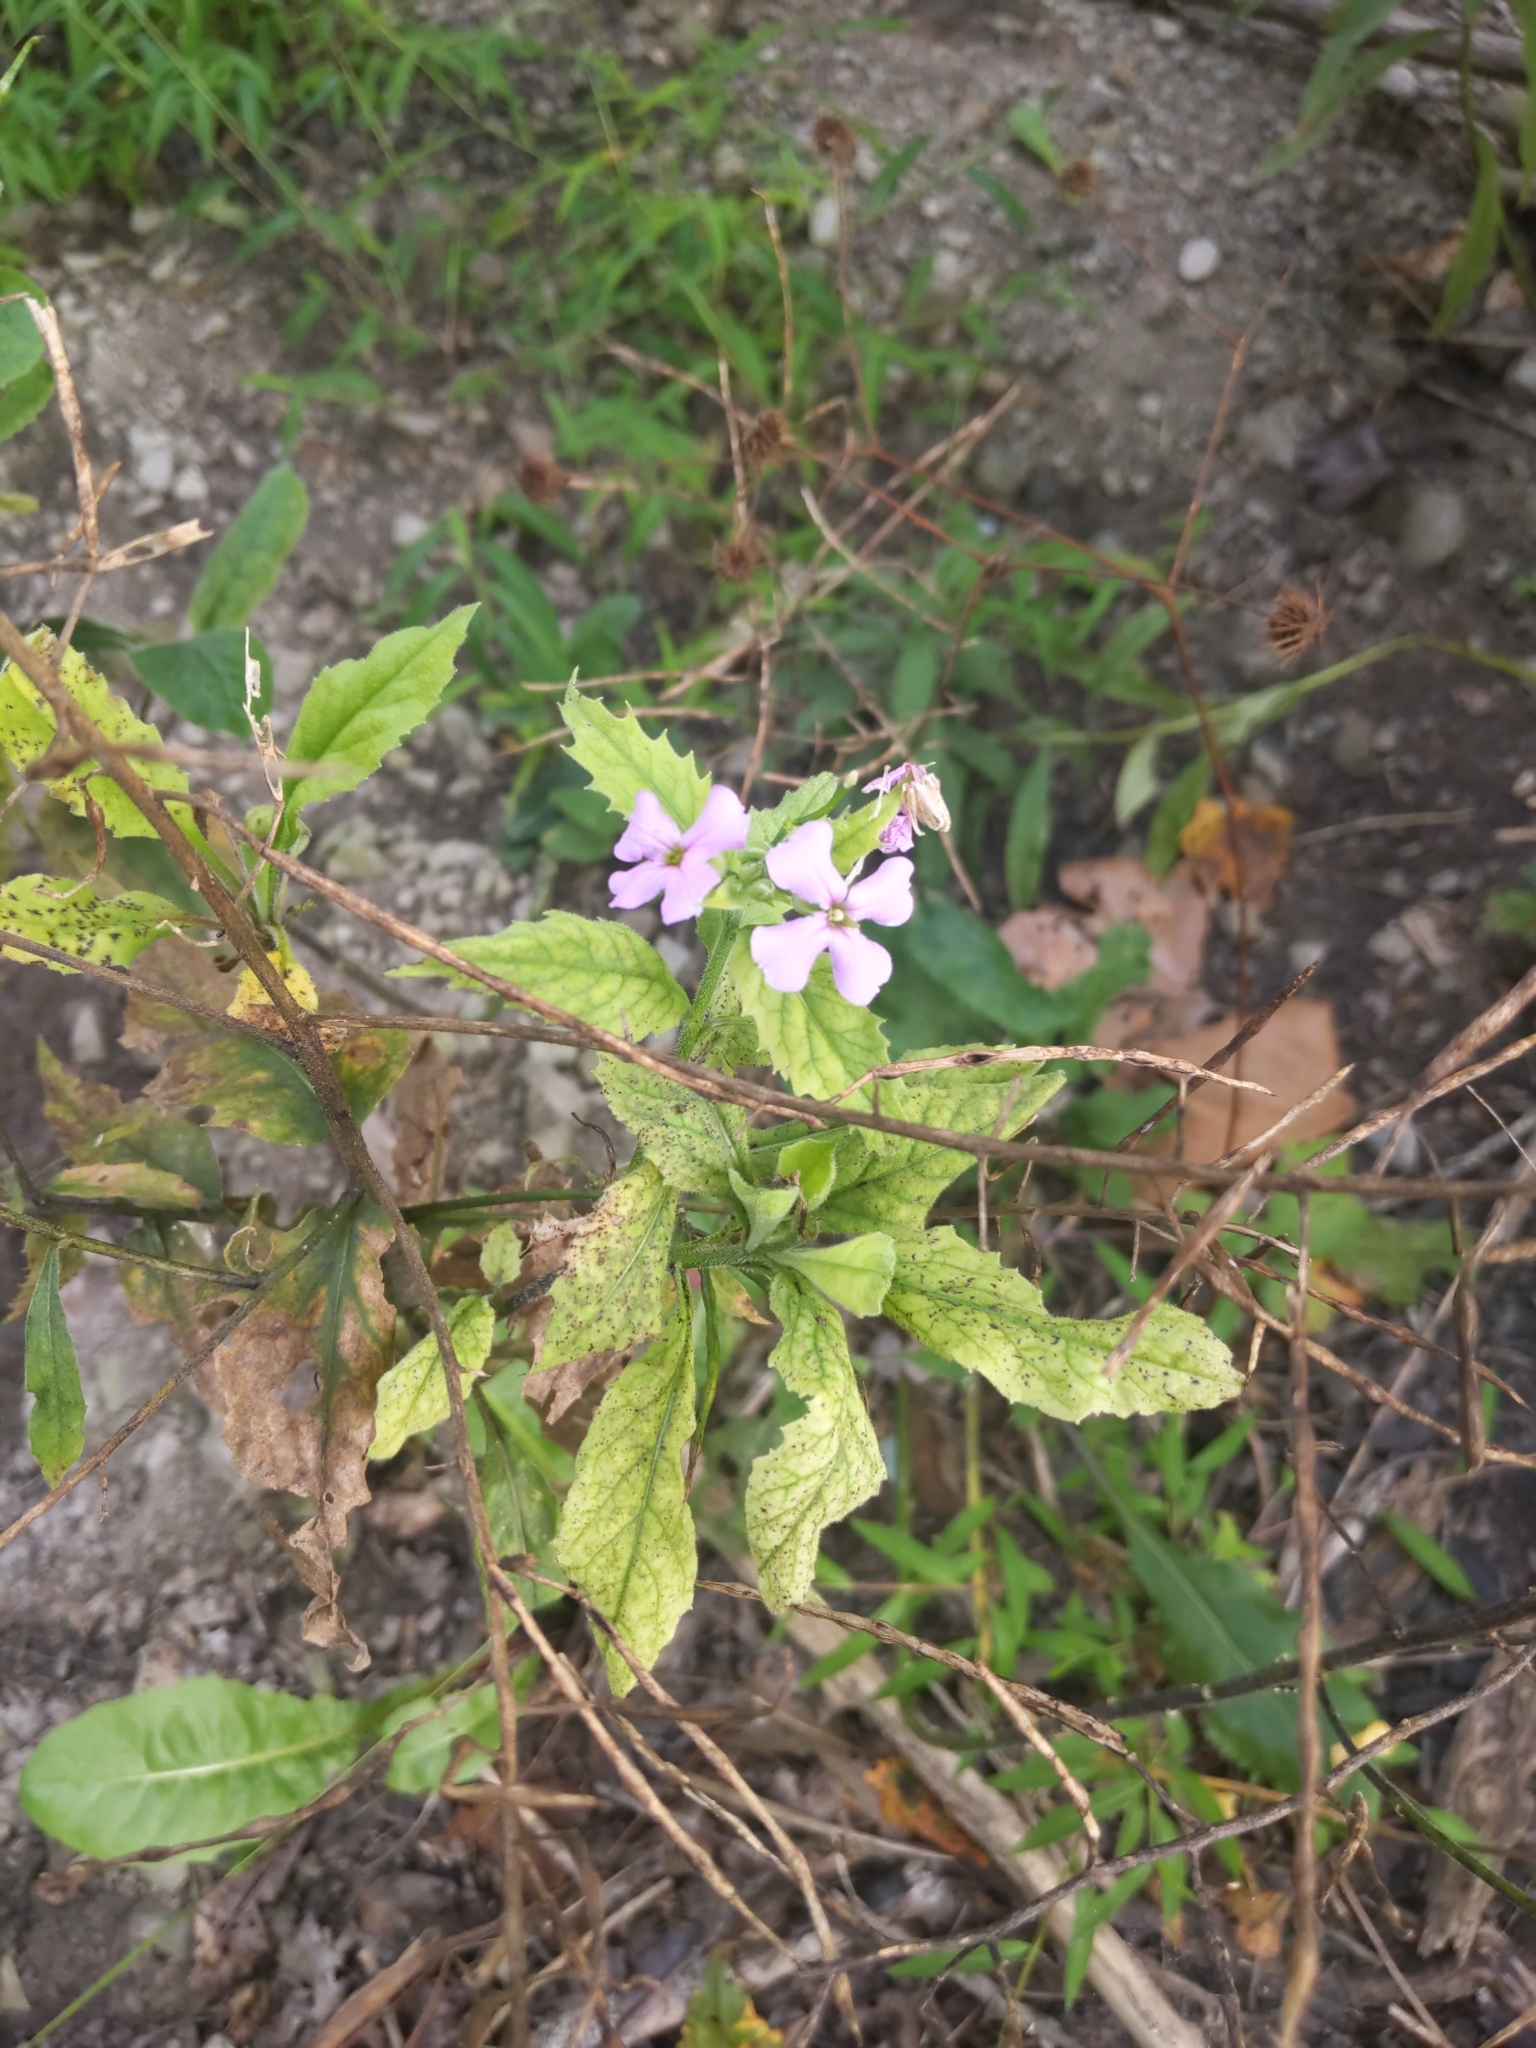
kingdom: Plantae
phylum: Tracheophyta
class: Magnoliopsida
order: Brassicales
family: Brassicaceae
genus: Hesperis
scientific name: Hesperis matronalis
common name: Dame's-violet
